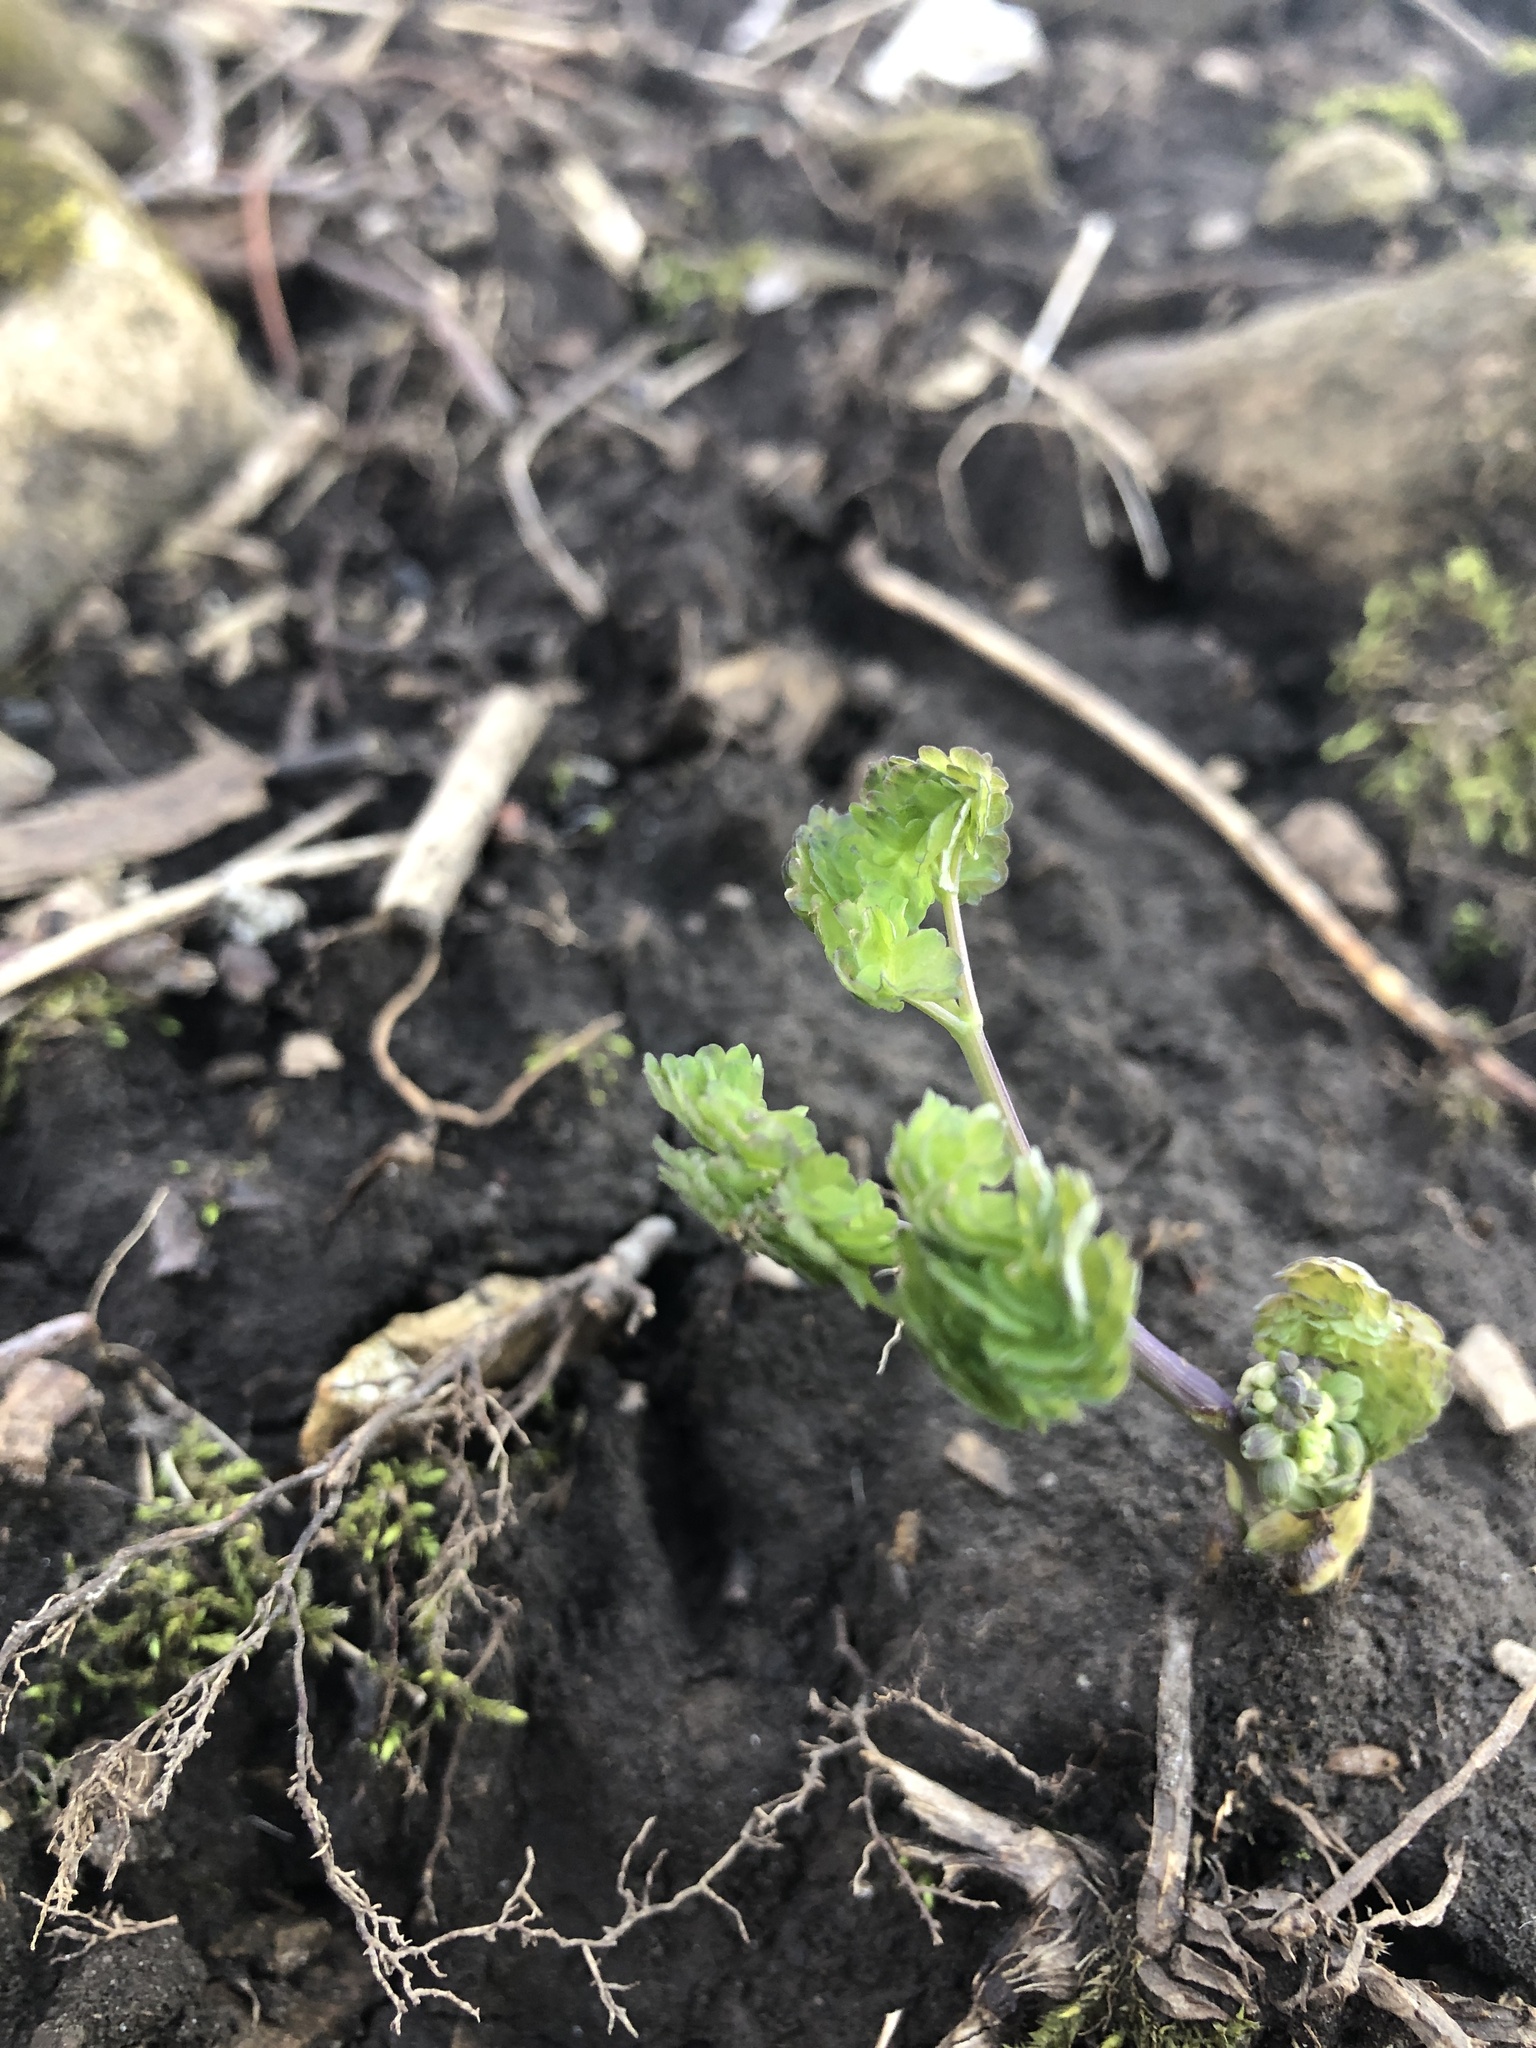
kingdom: Plantae
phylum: Tracheophyta
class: Magnoliopsida
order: Ranunculales
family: Ranunculaceae
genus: Thalictrum
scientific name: Thalictrum dioicum
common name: Early meadow-rue
